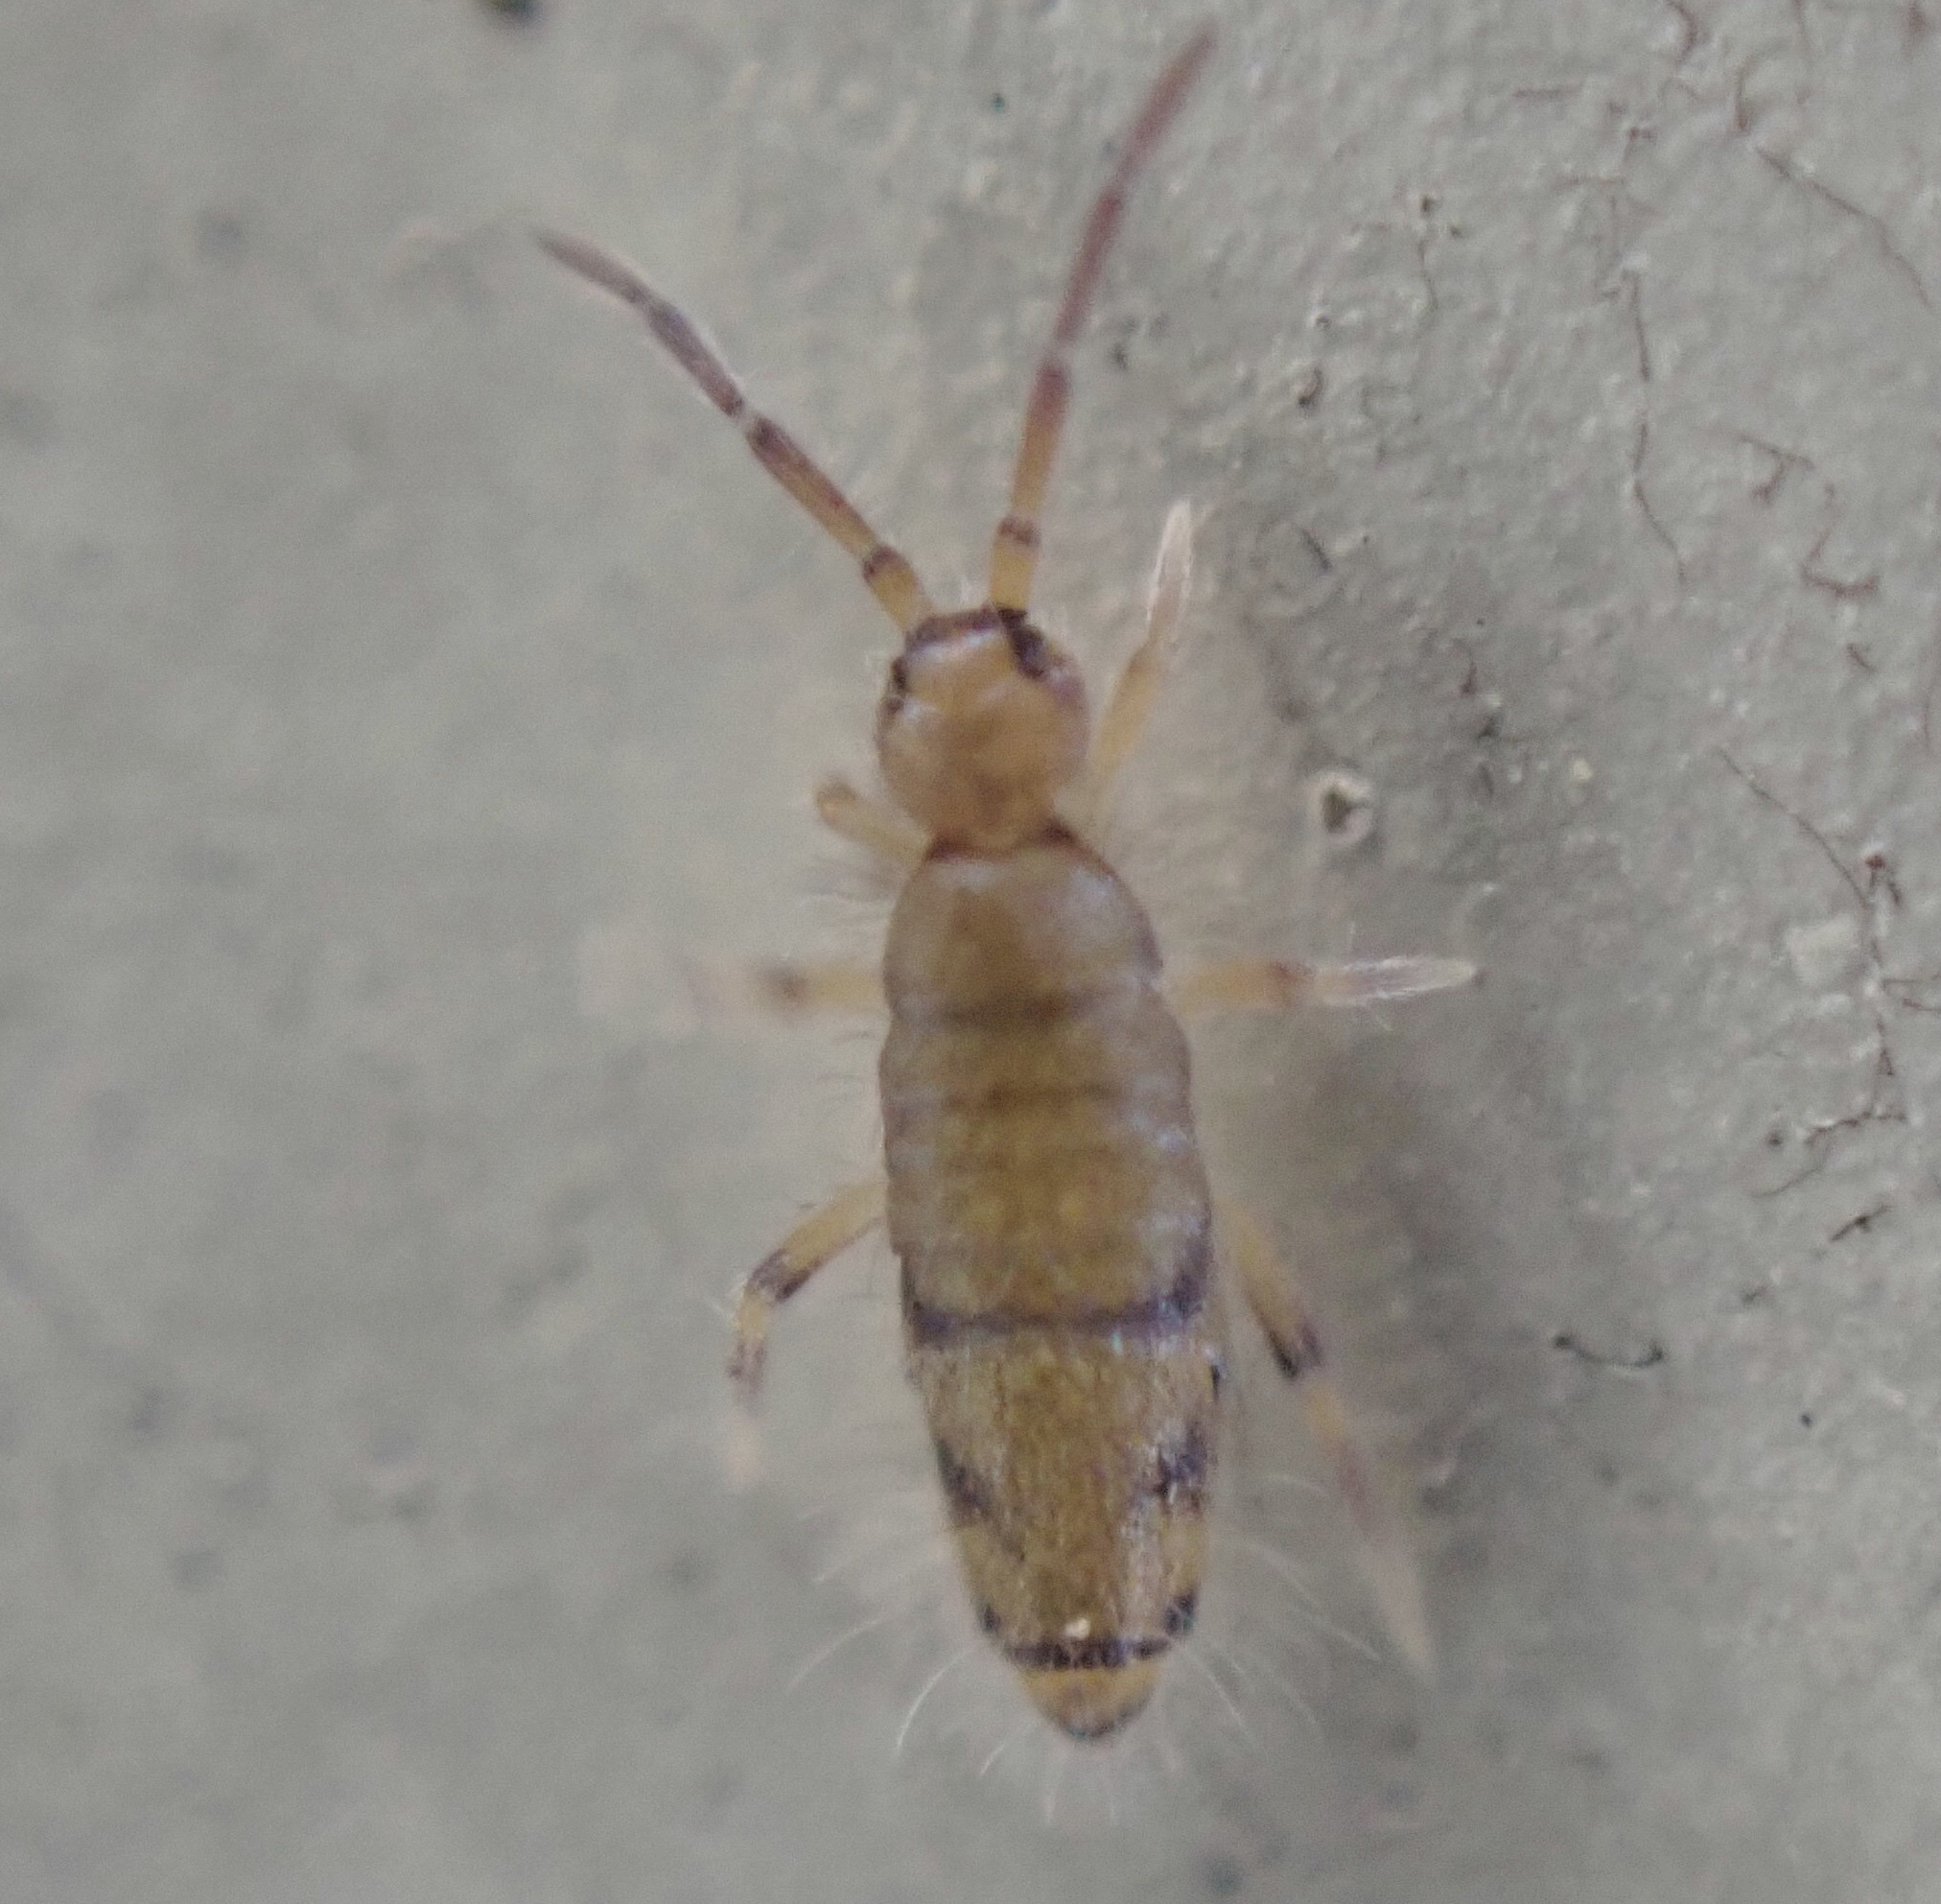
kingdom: Animalia
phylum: Arthropoda
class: Collembola
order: Entomobryomorpha
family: Entomobryidae
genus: Willowsia
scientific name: Willowsia nigromaculata
